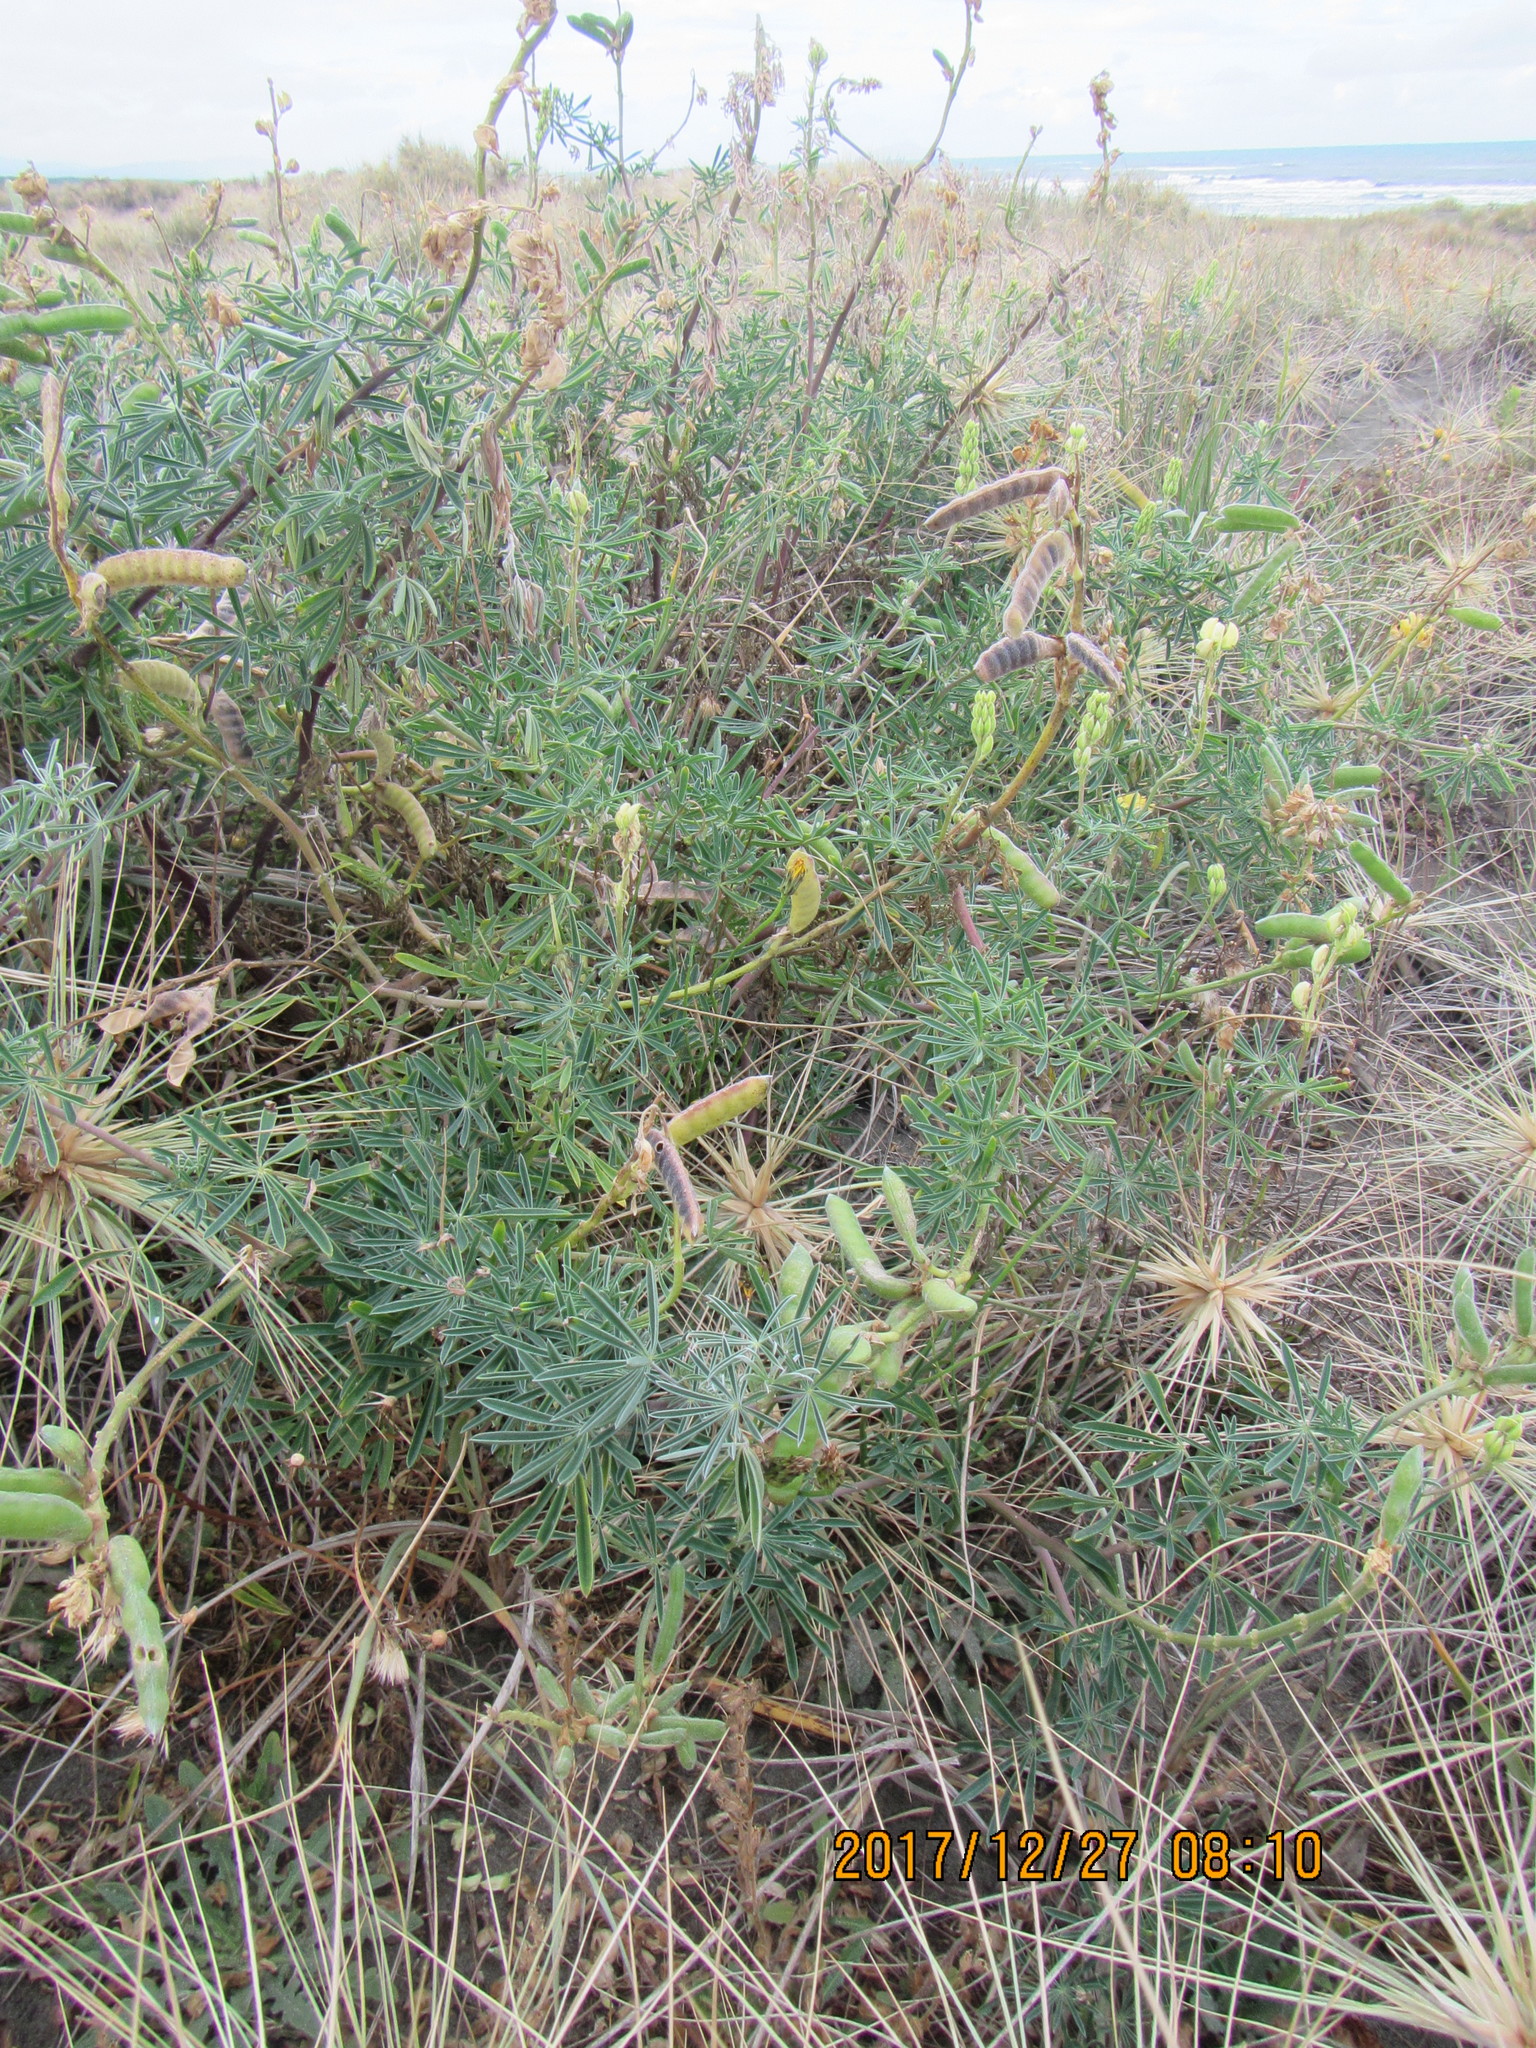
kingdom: Plantae
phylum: Tracheophyta
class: Magnoliopsida
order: Fabales
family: Fabaceae
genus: Lupinus
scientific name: Lupinus arboreus
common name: Yellow bush lupine
